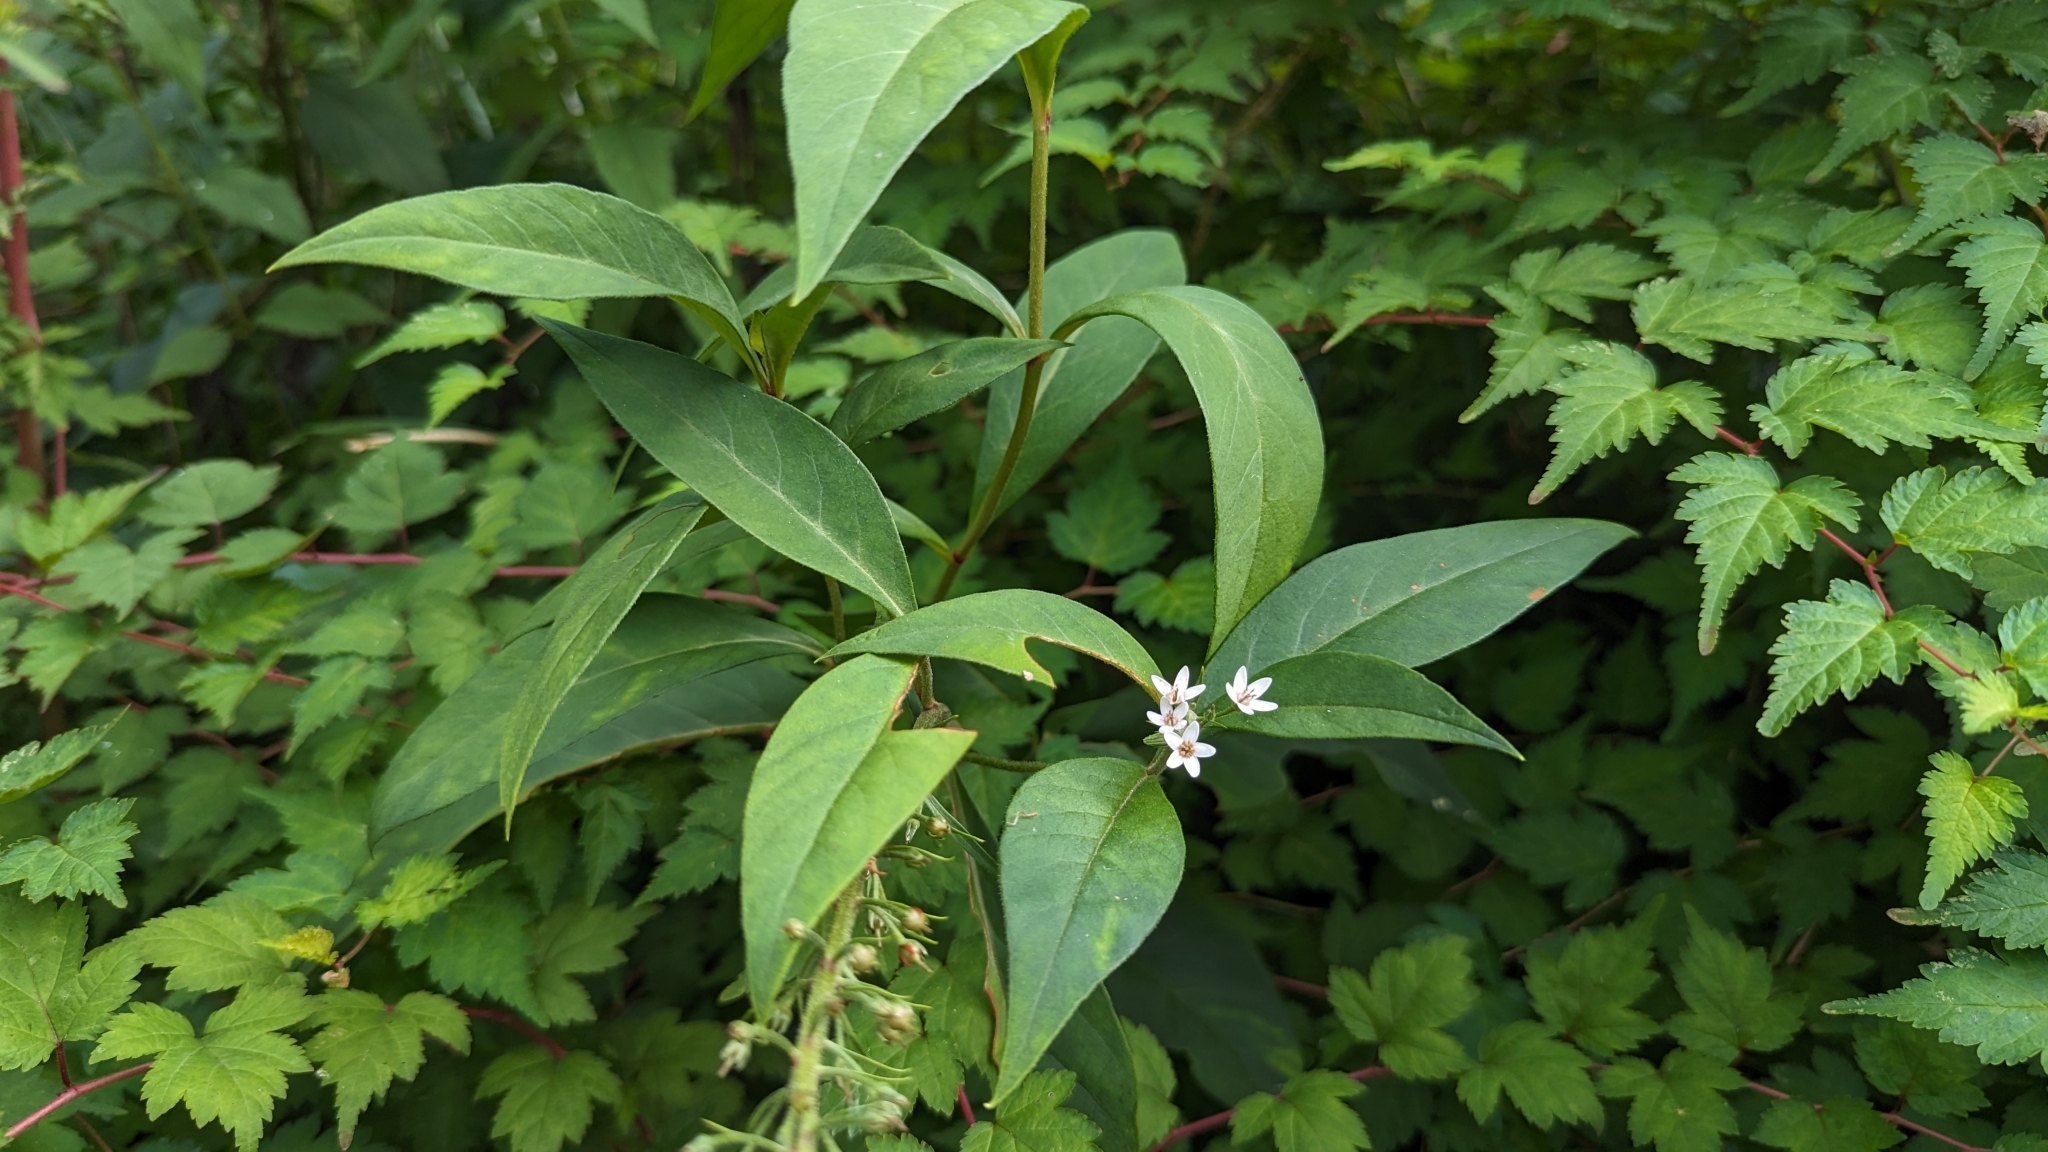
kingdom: Plantae
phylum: Tracheophyta
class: Magnoliopsida
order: Ericales
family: Primulaceae
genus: Lysimachia
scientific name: Lysimachia clethroides
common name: Gooseneck loosestrife
